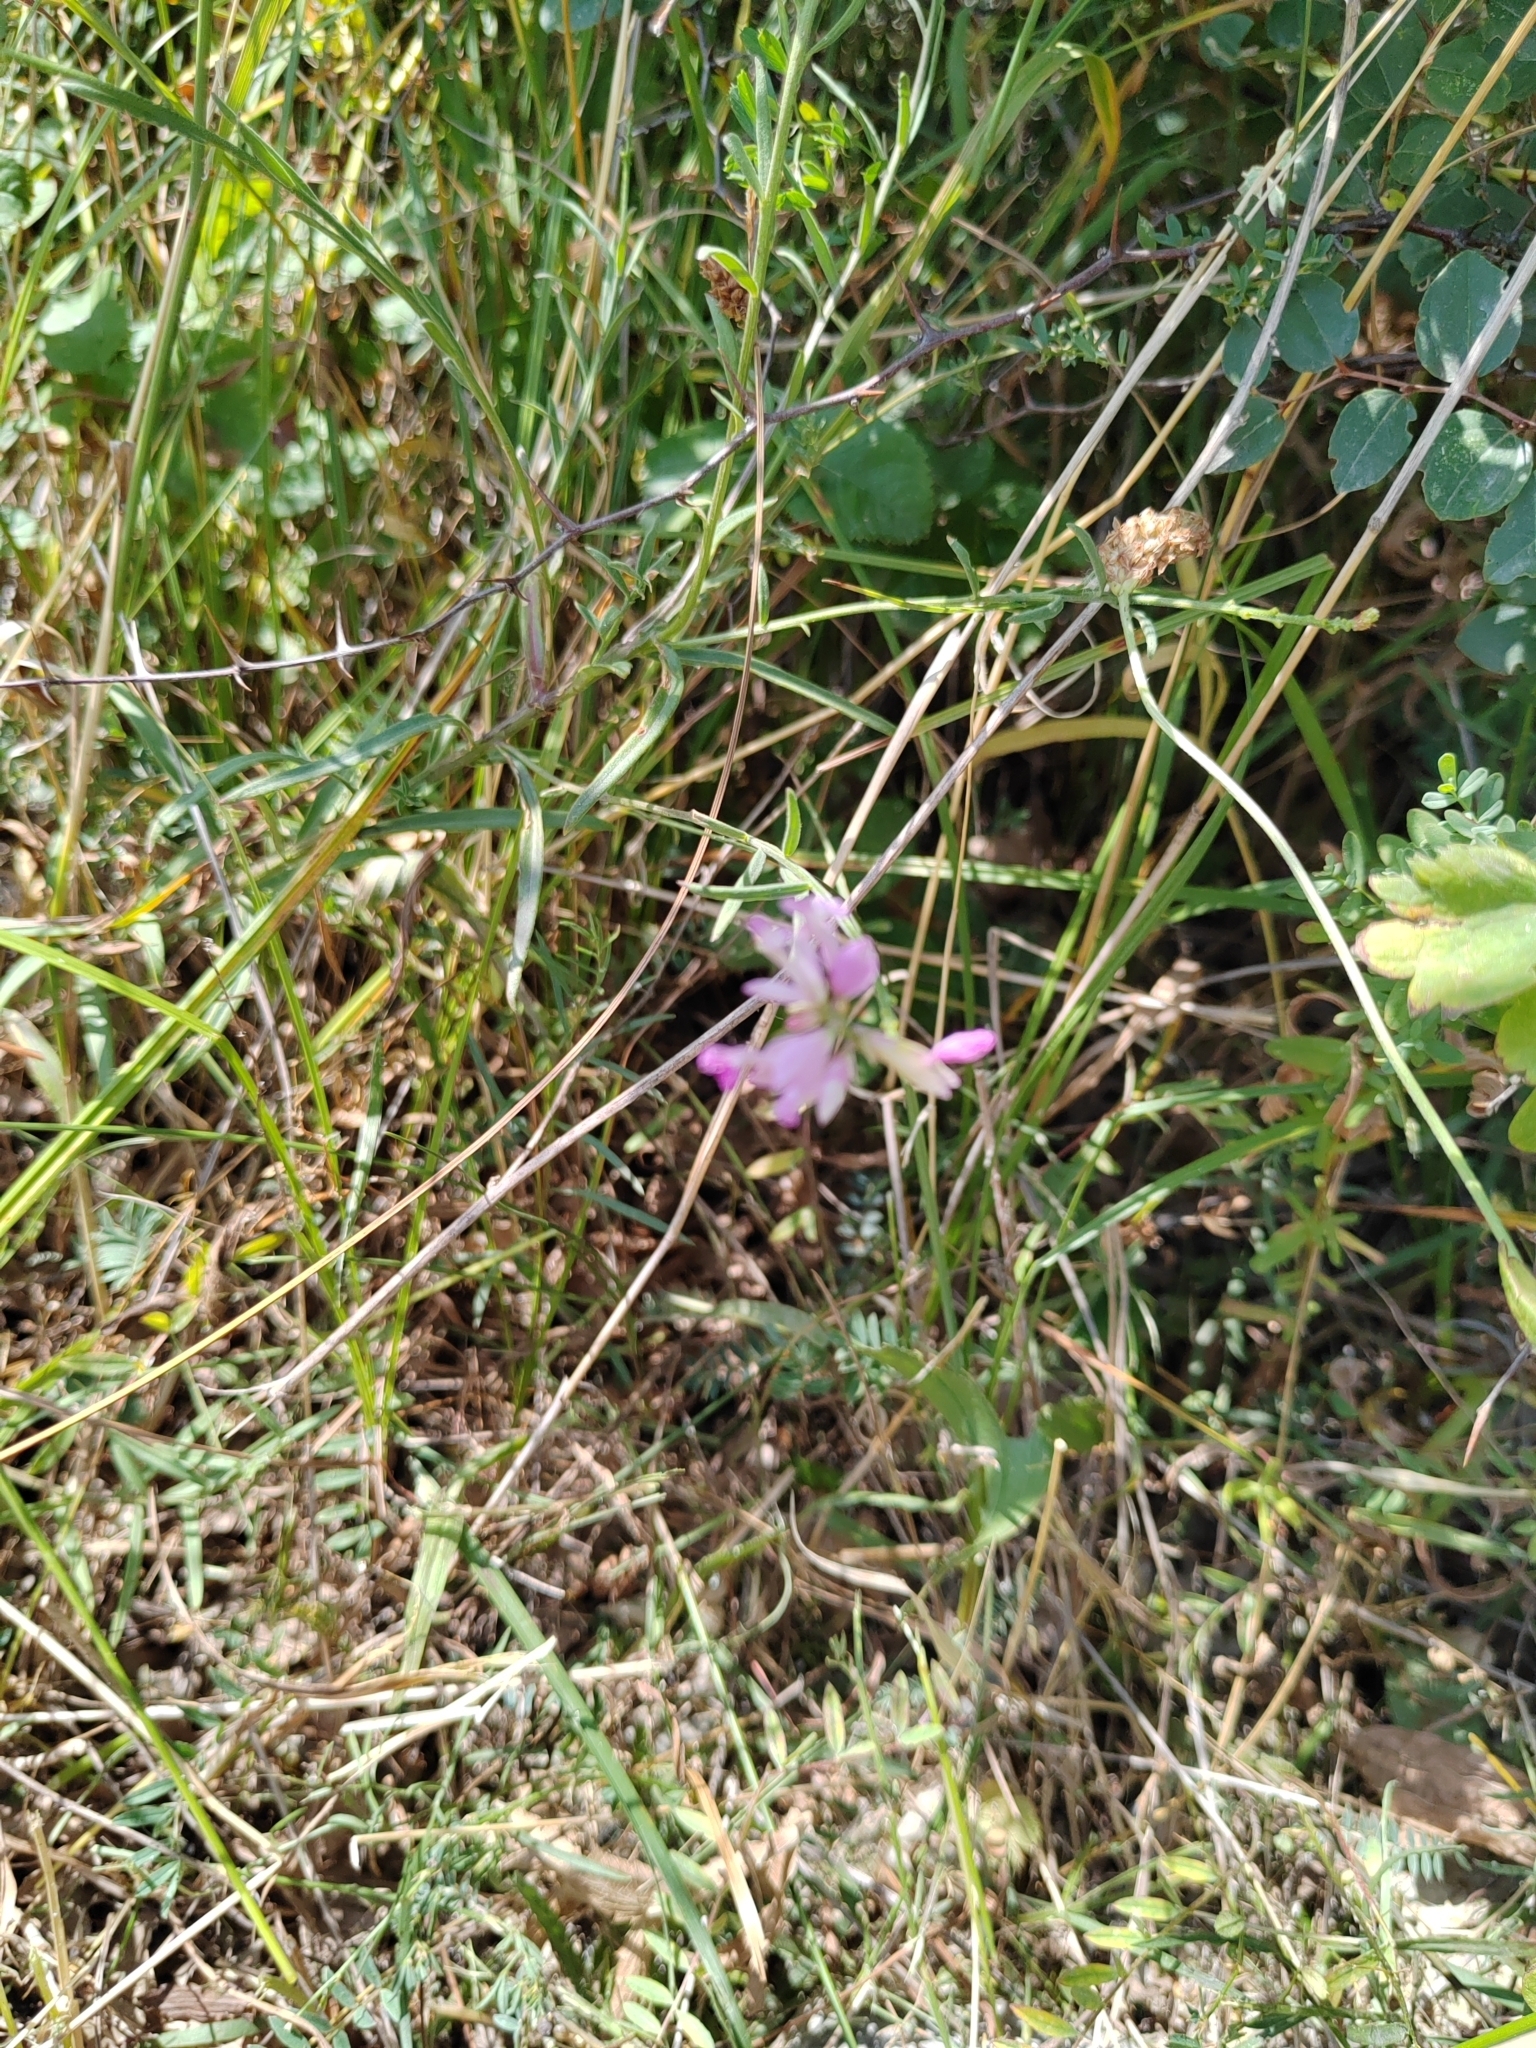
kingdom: Plantae
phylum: Tracheophyta
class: Magnoliopsida
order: Fabales
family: Polygalaceae
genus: Polygala
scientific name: Polygala major
